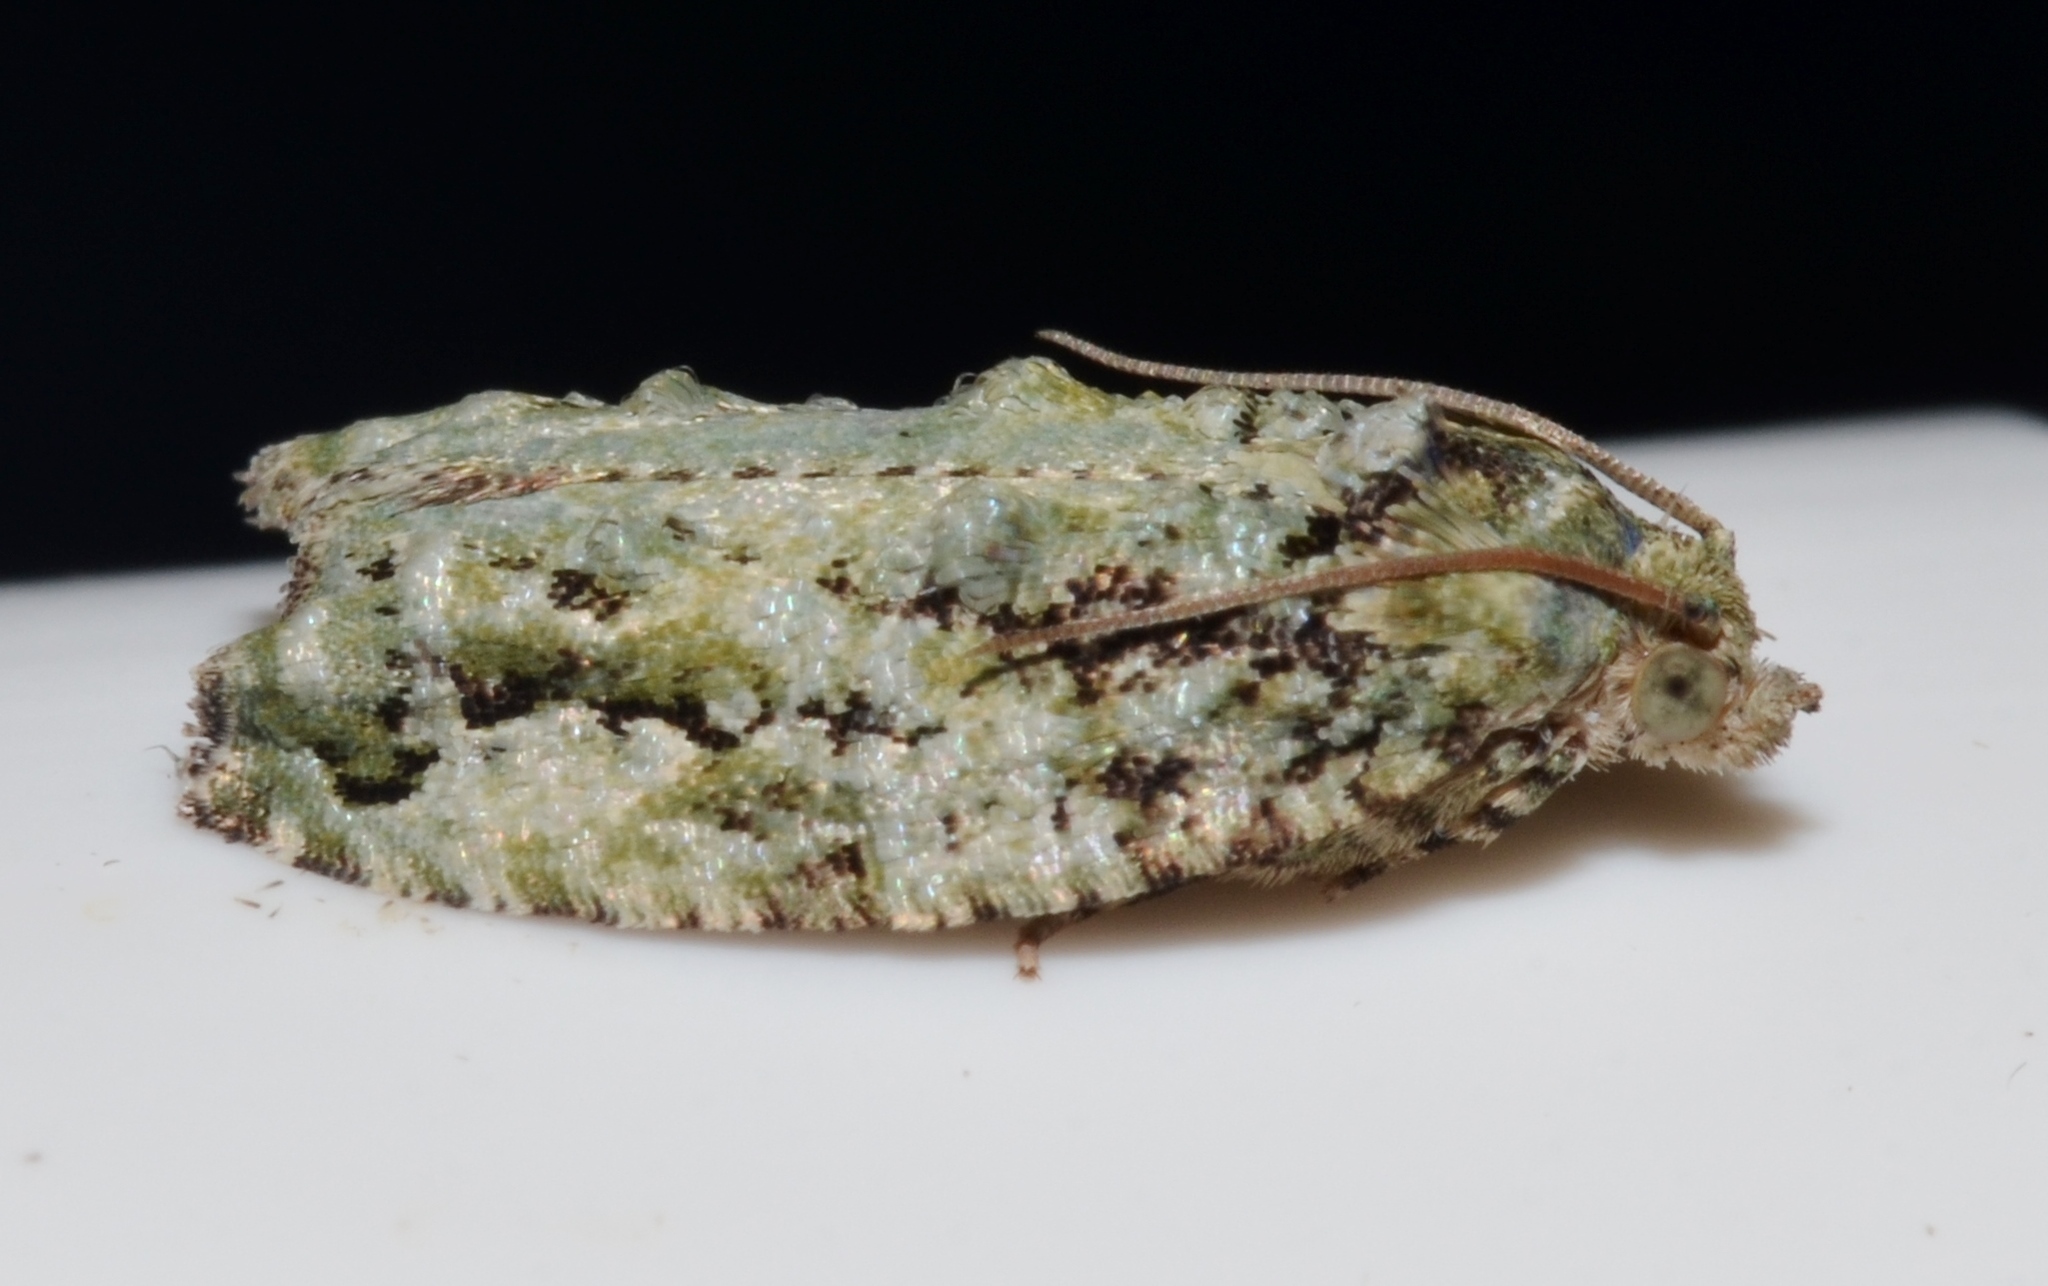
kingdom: Animalia
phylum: Arthropoda
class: Insecta
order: Lepidoptera
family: Tortricidae
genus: Proteoteras
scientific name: Proteoteras moffatiana
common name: Maple bud borer moth
